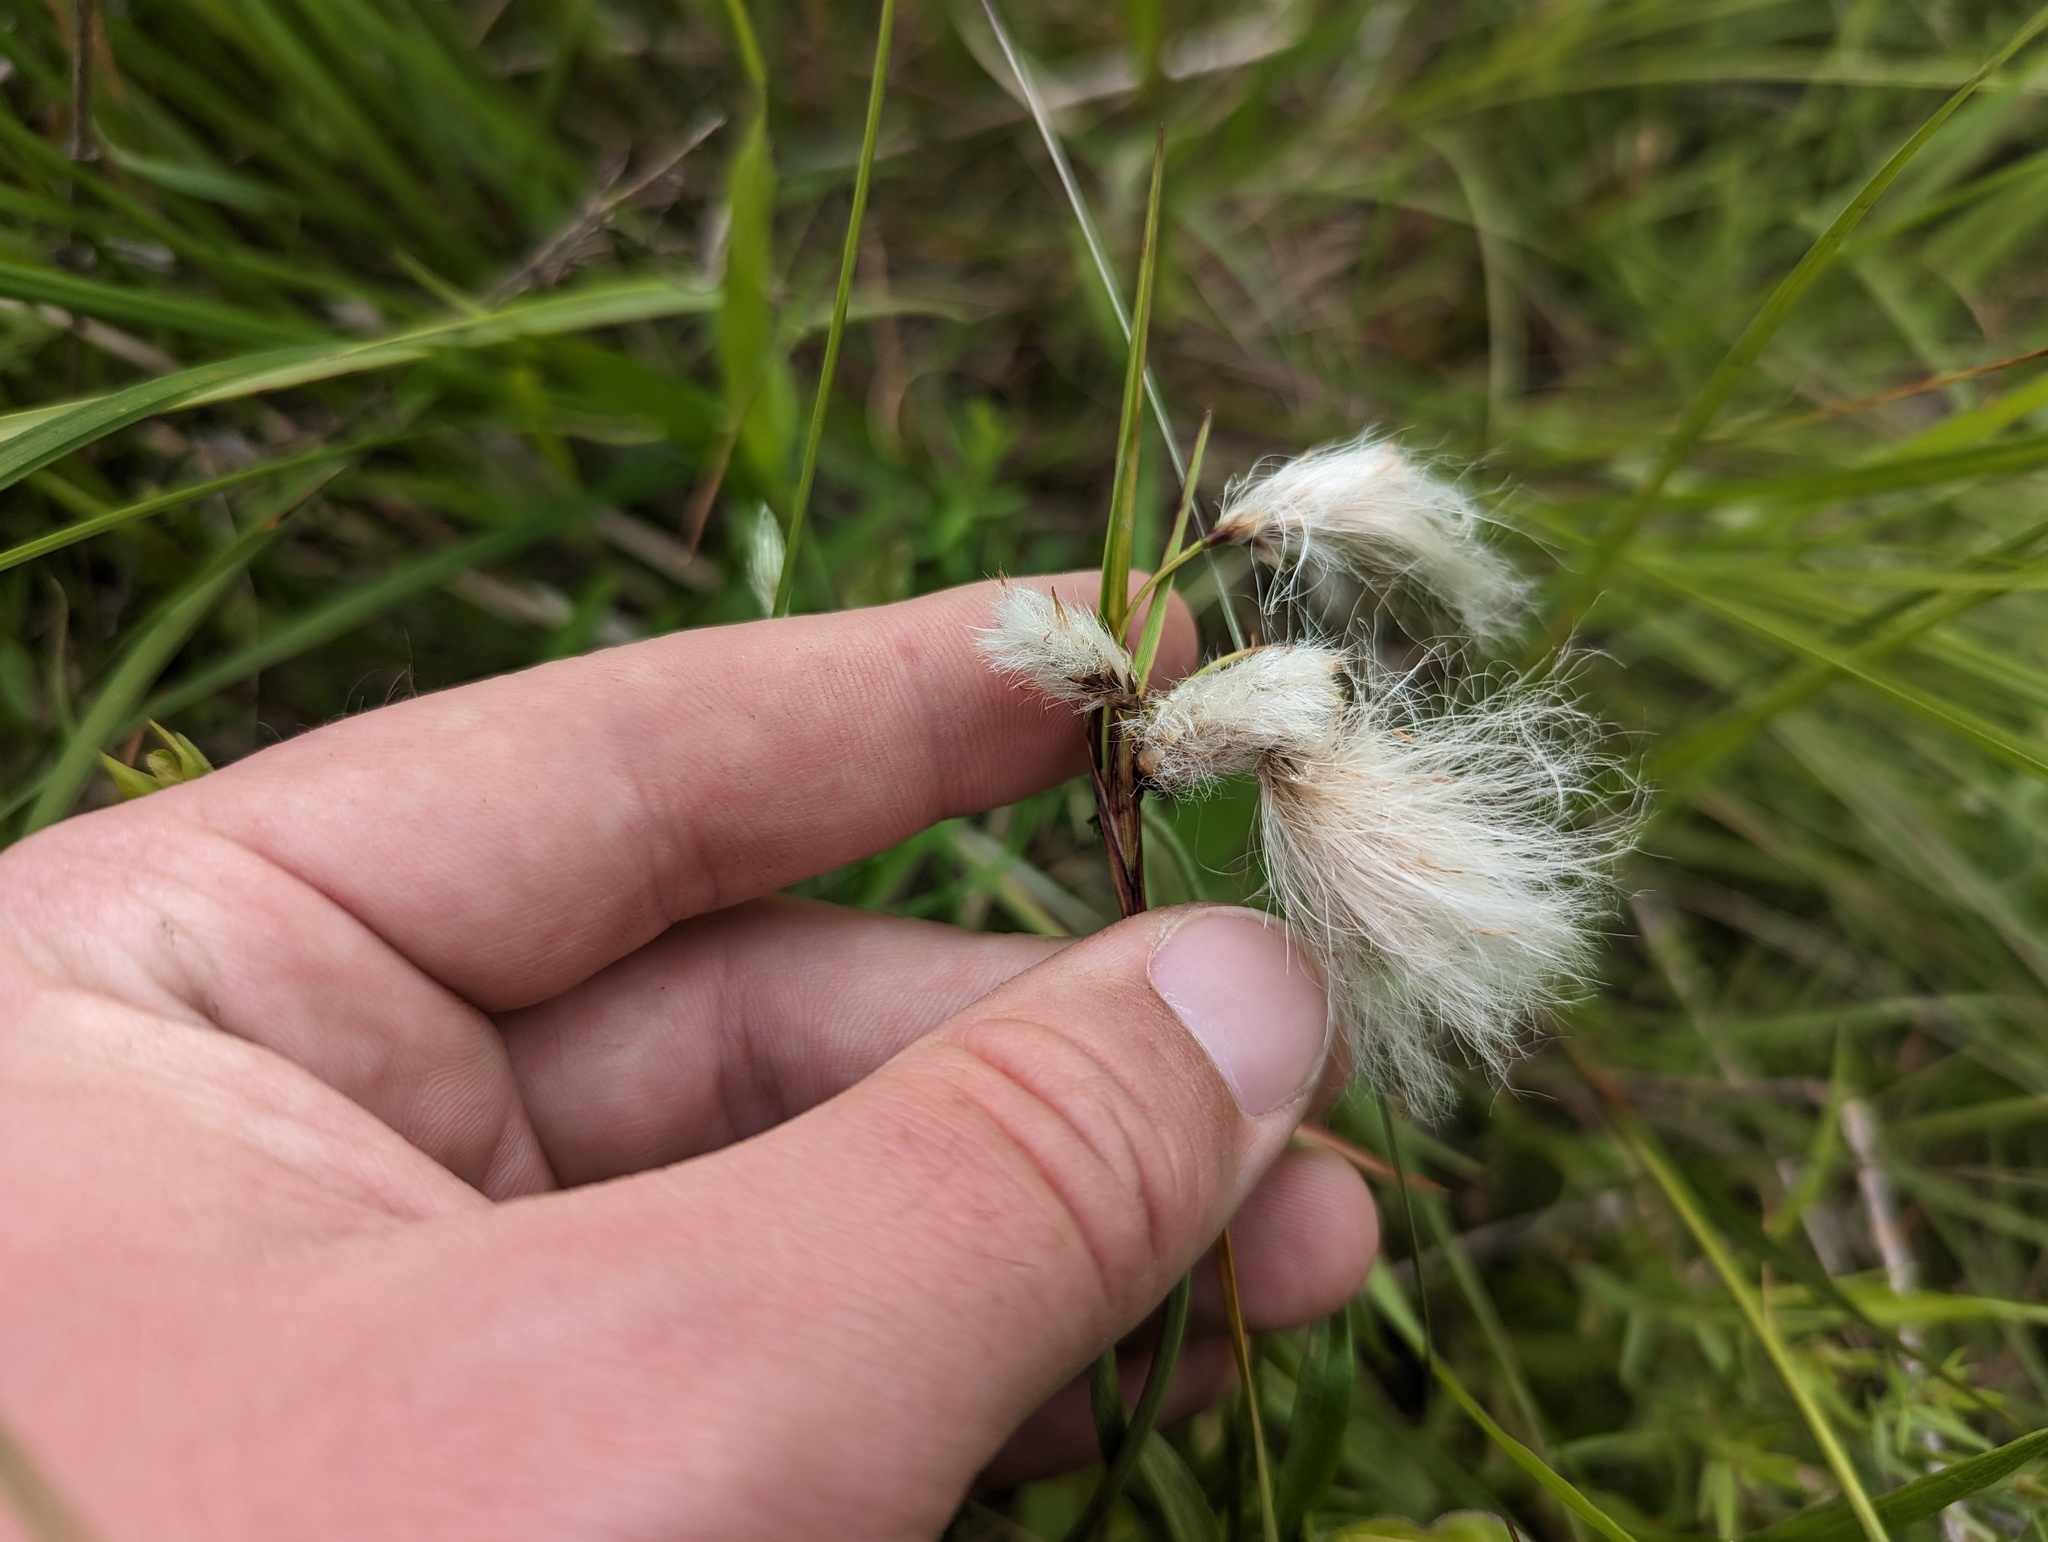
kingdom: Plantae
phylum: Tracheophyta
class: Liliopsida
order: Poales
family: Cyperaceae
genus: Eriophorum
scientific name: Eriophorum angustifolium
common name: Common cottongrass
